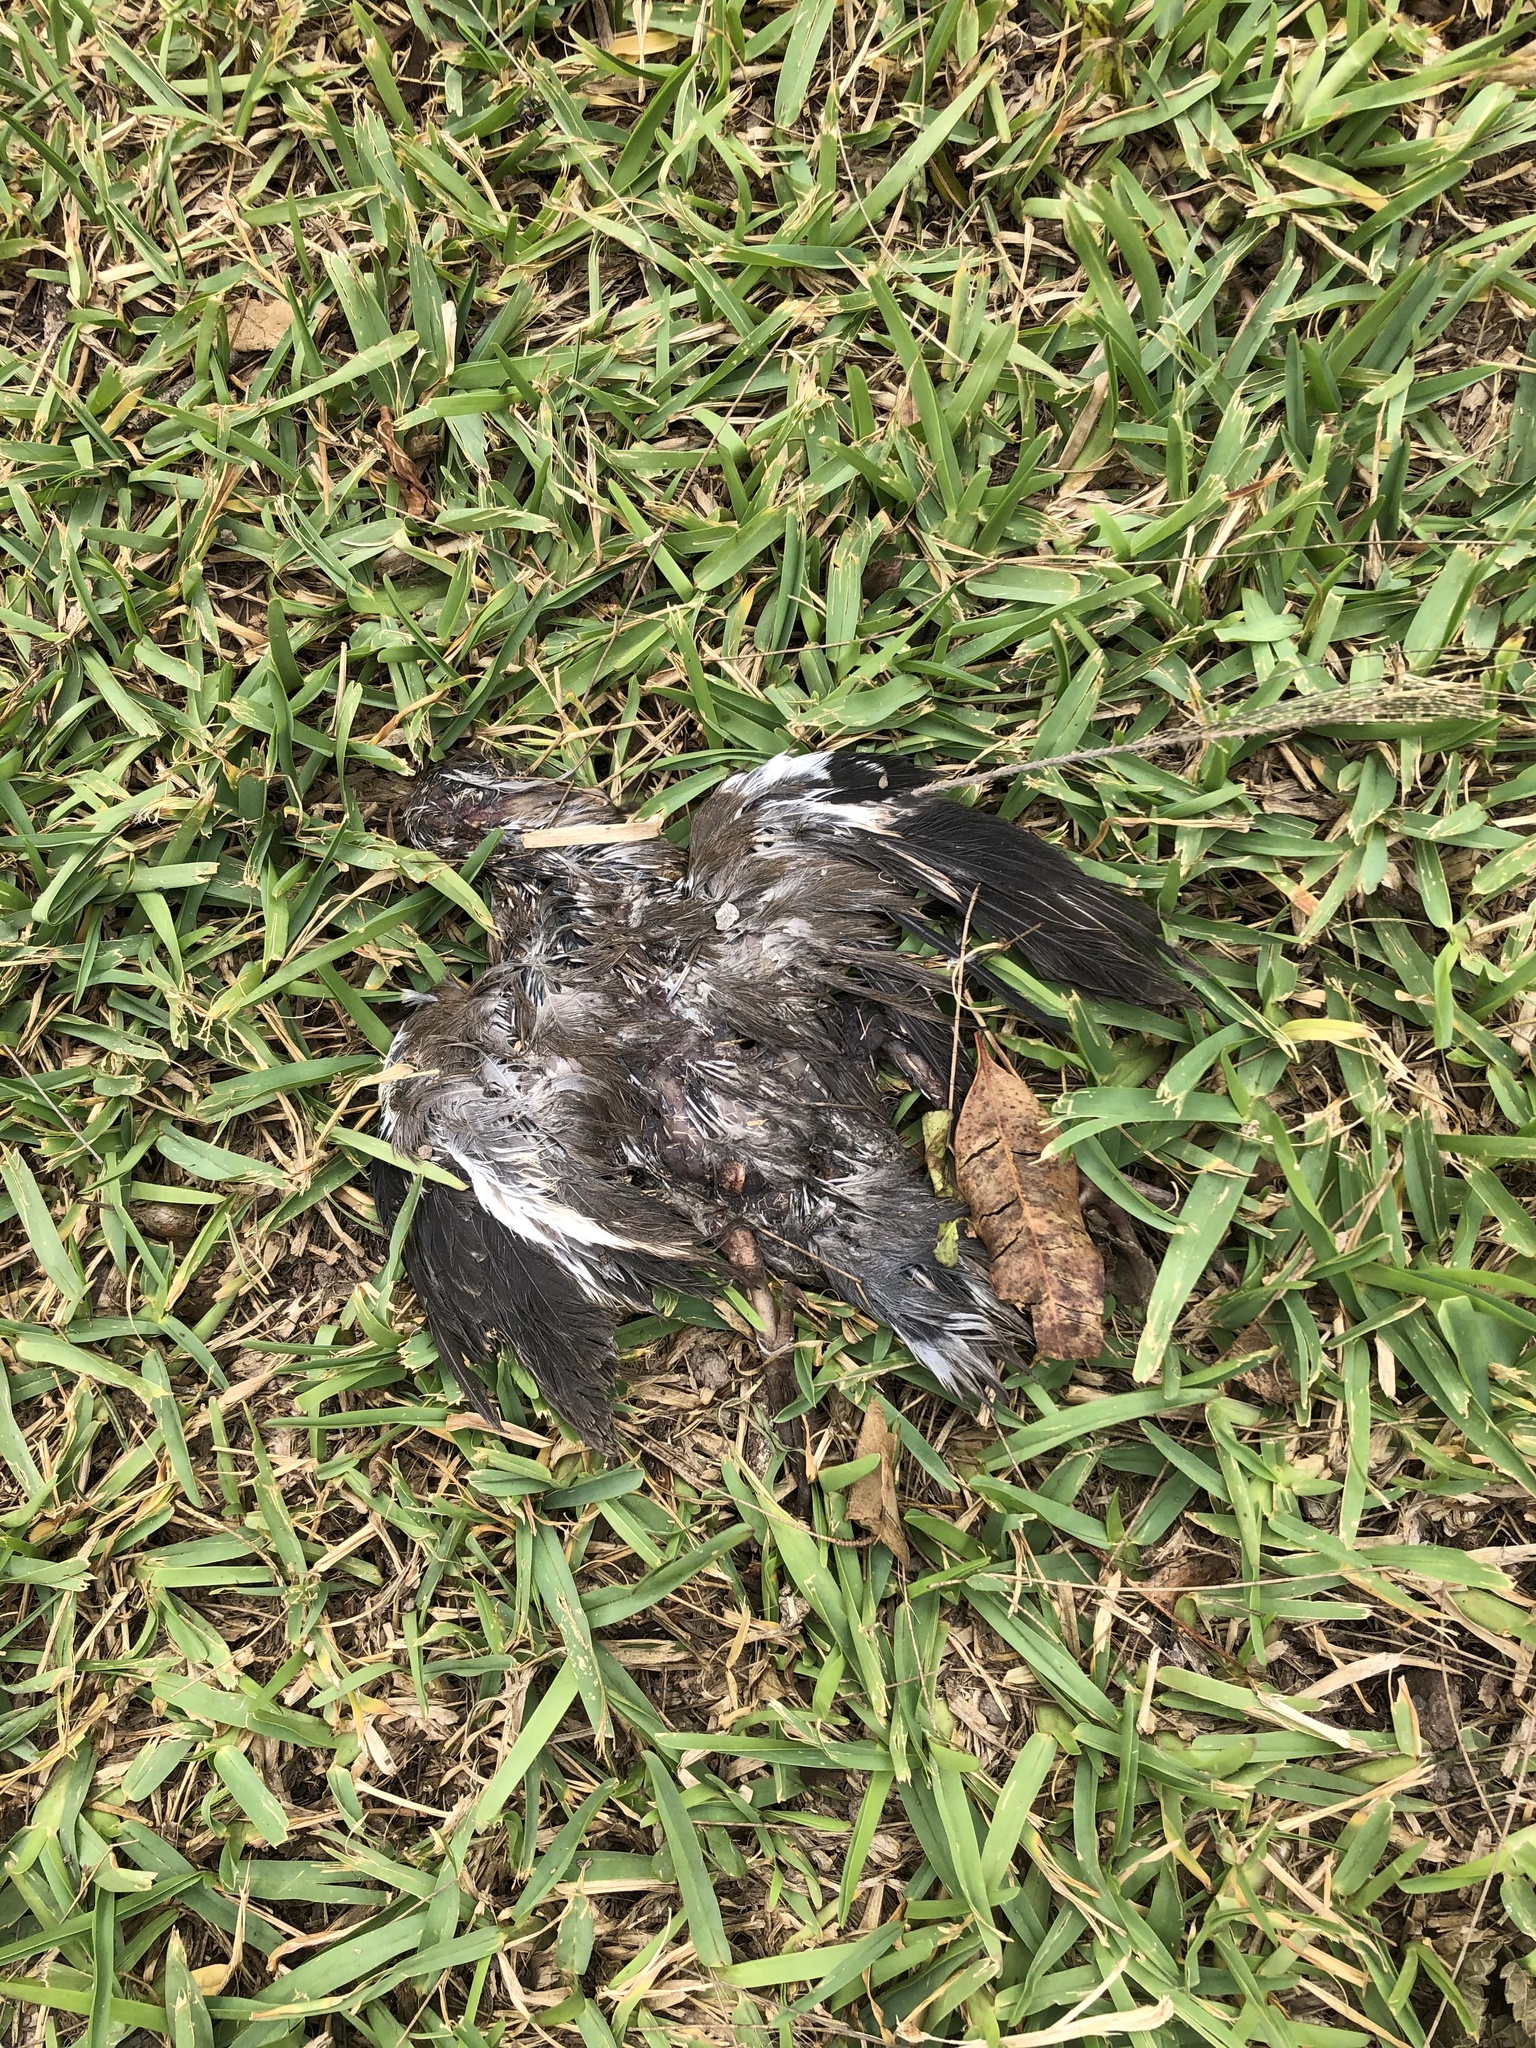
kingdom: Animalia
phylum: Chordata
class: Aves
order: Columbiformes
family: Columbidae
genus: Zenaida
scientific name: Zenaida meloda
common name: West peruvian dove
